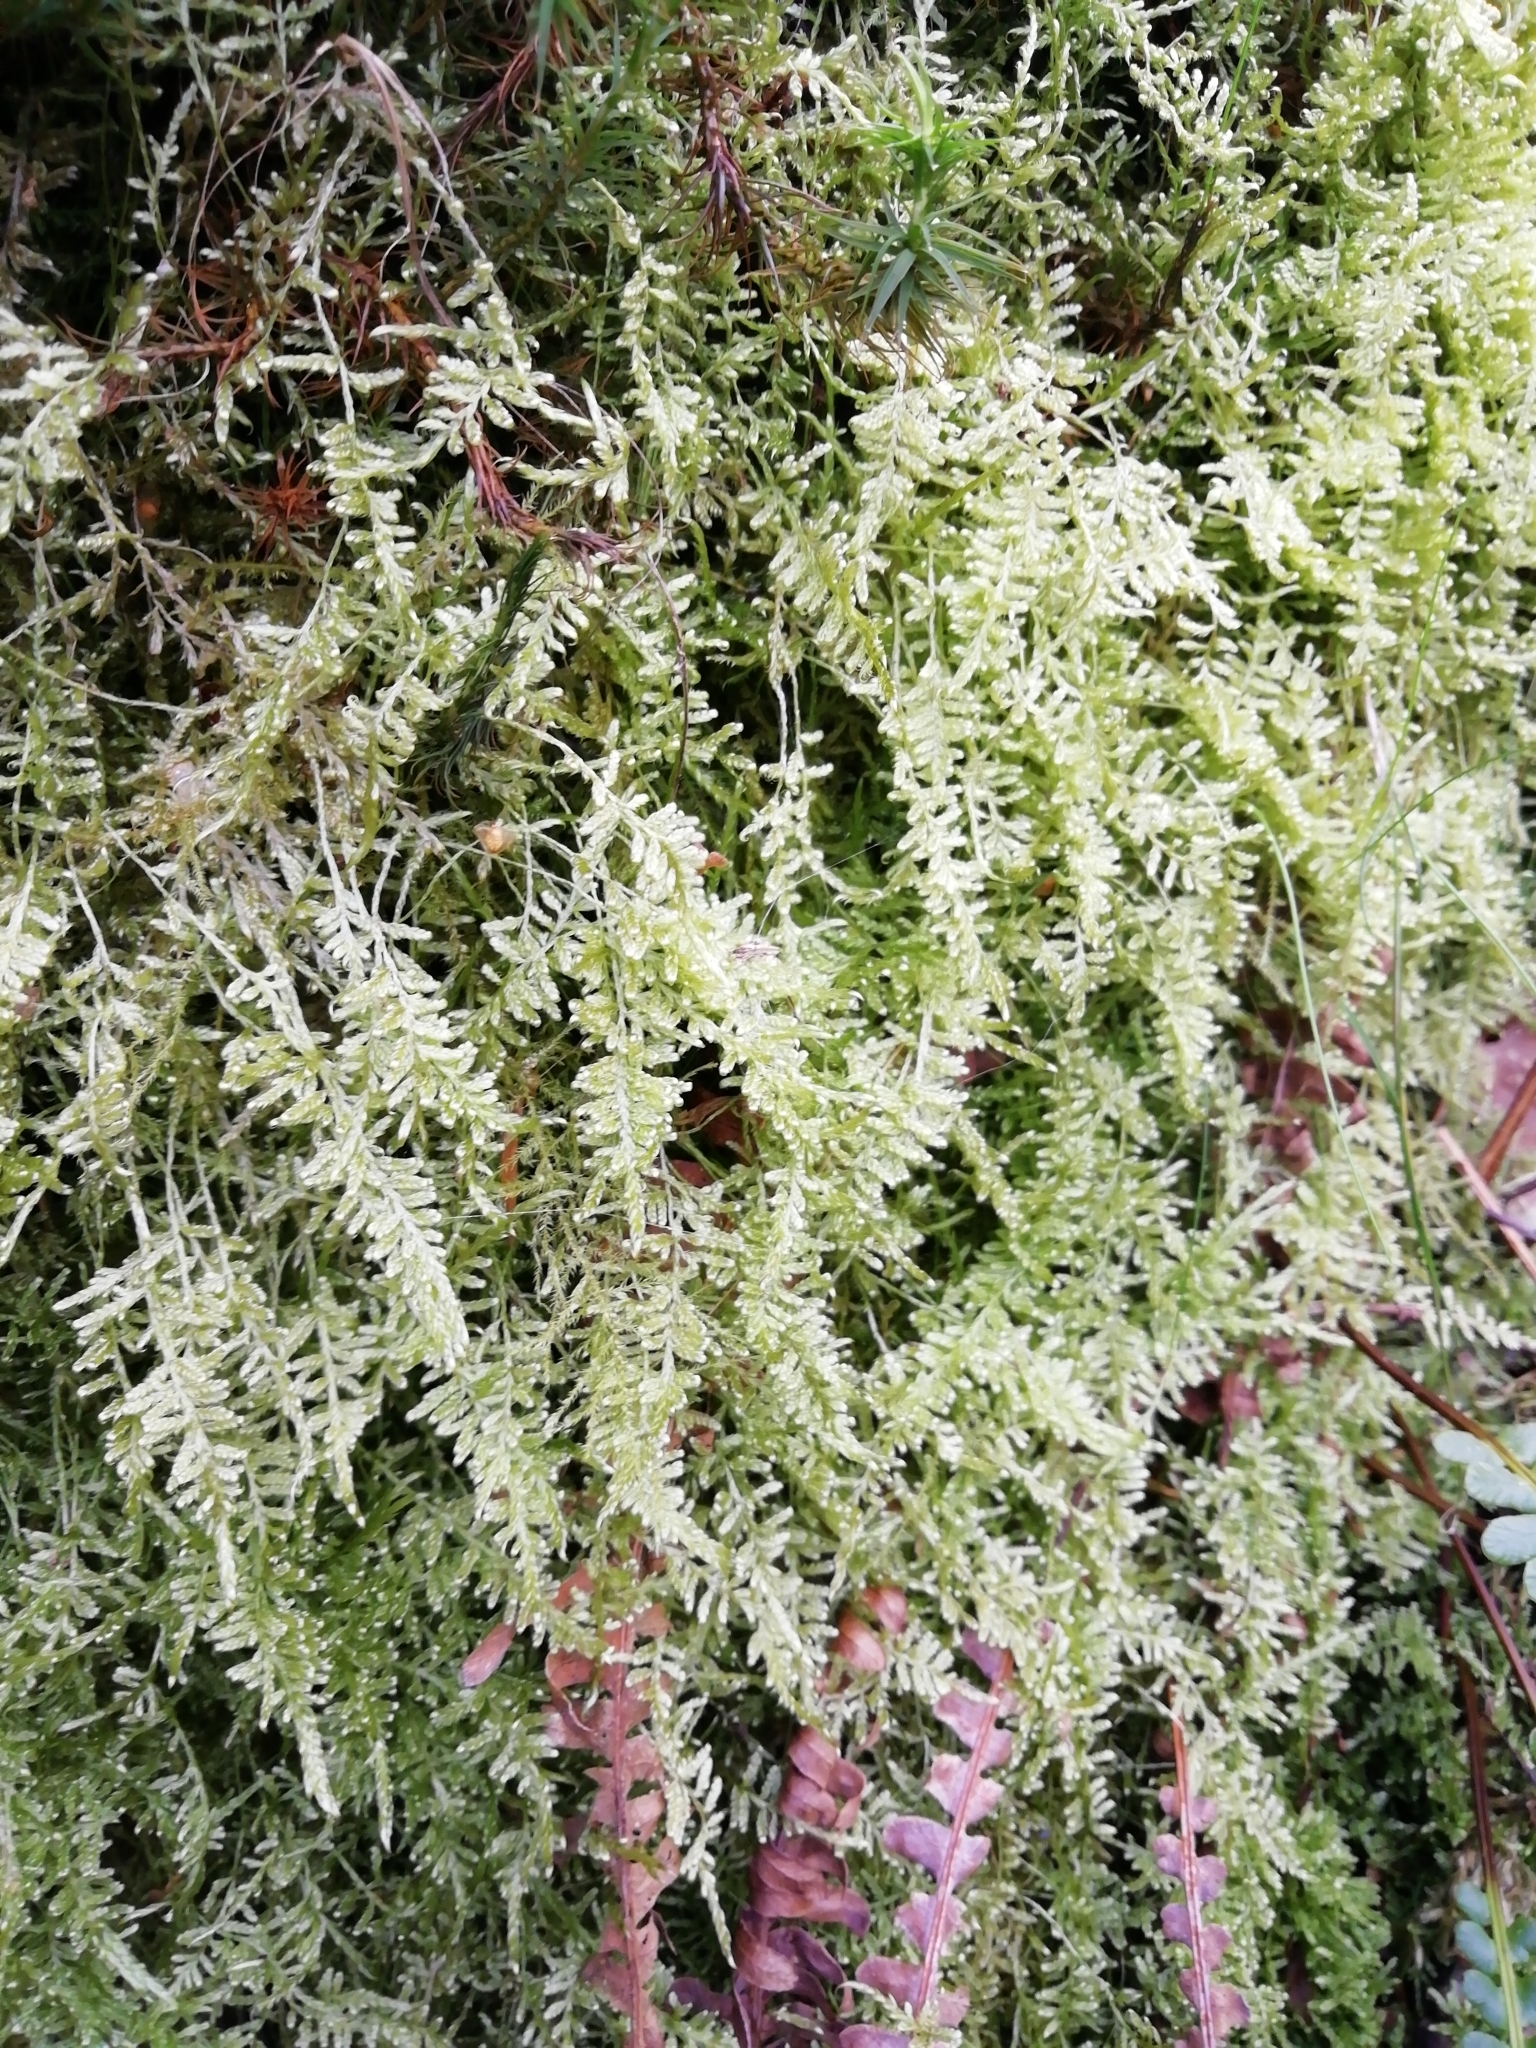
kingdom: Plantae
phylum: Bryophyta
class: Bryopsida
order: Hypnales
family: Hypnaceae
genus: Hypnum
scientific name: Hypnum jutlandicum
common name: Heath plait-moss
